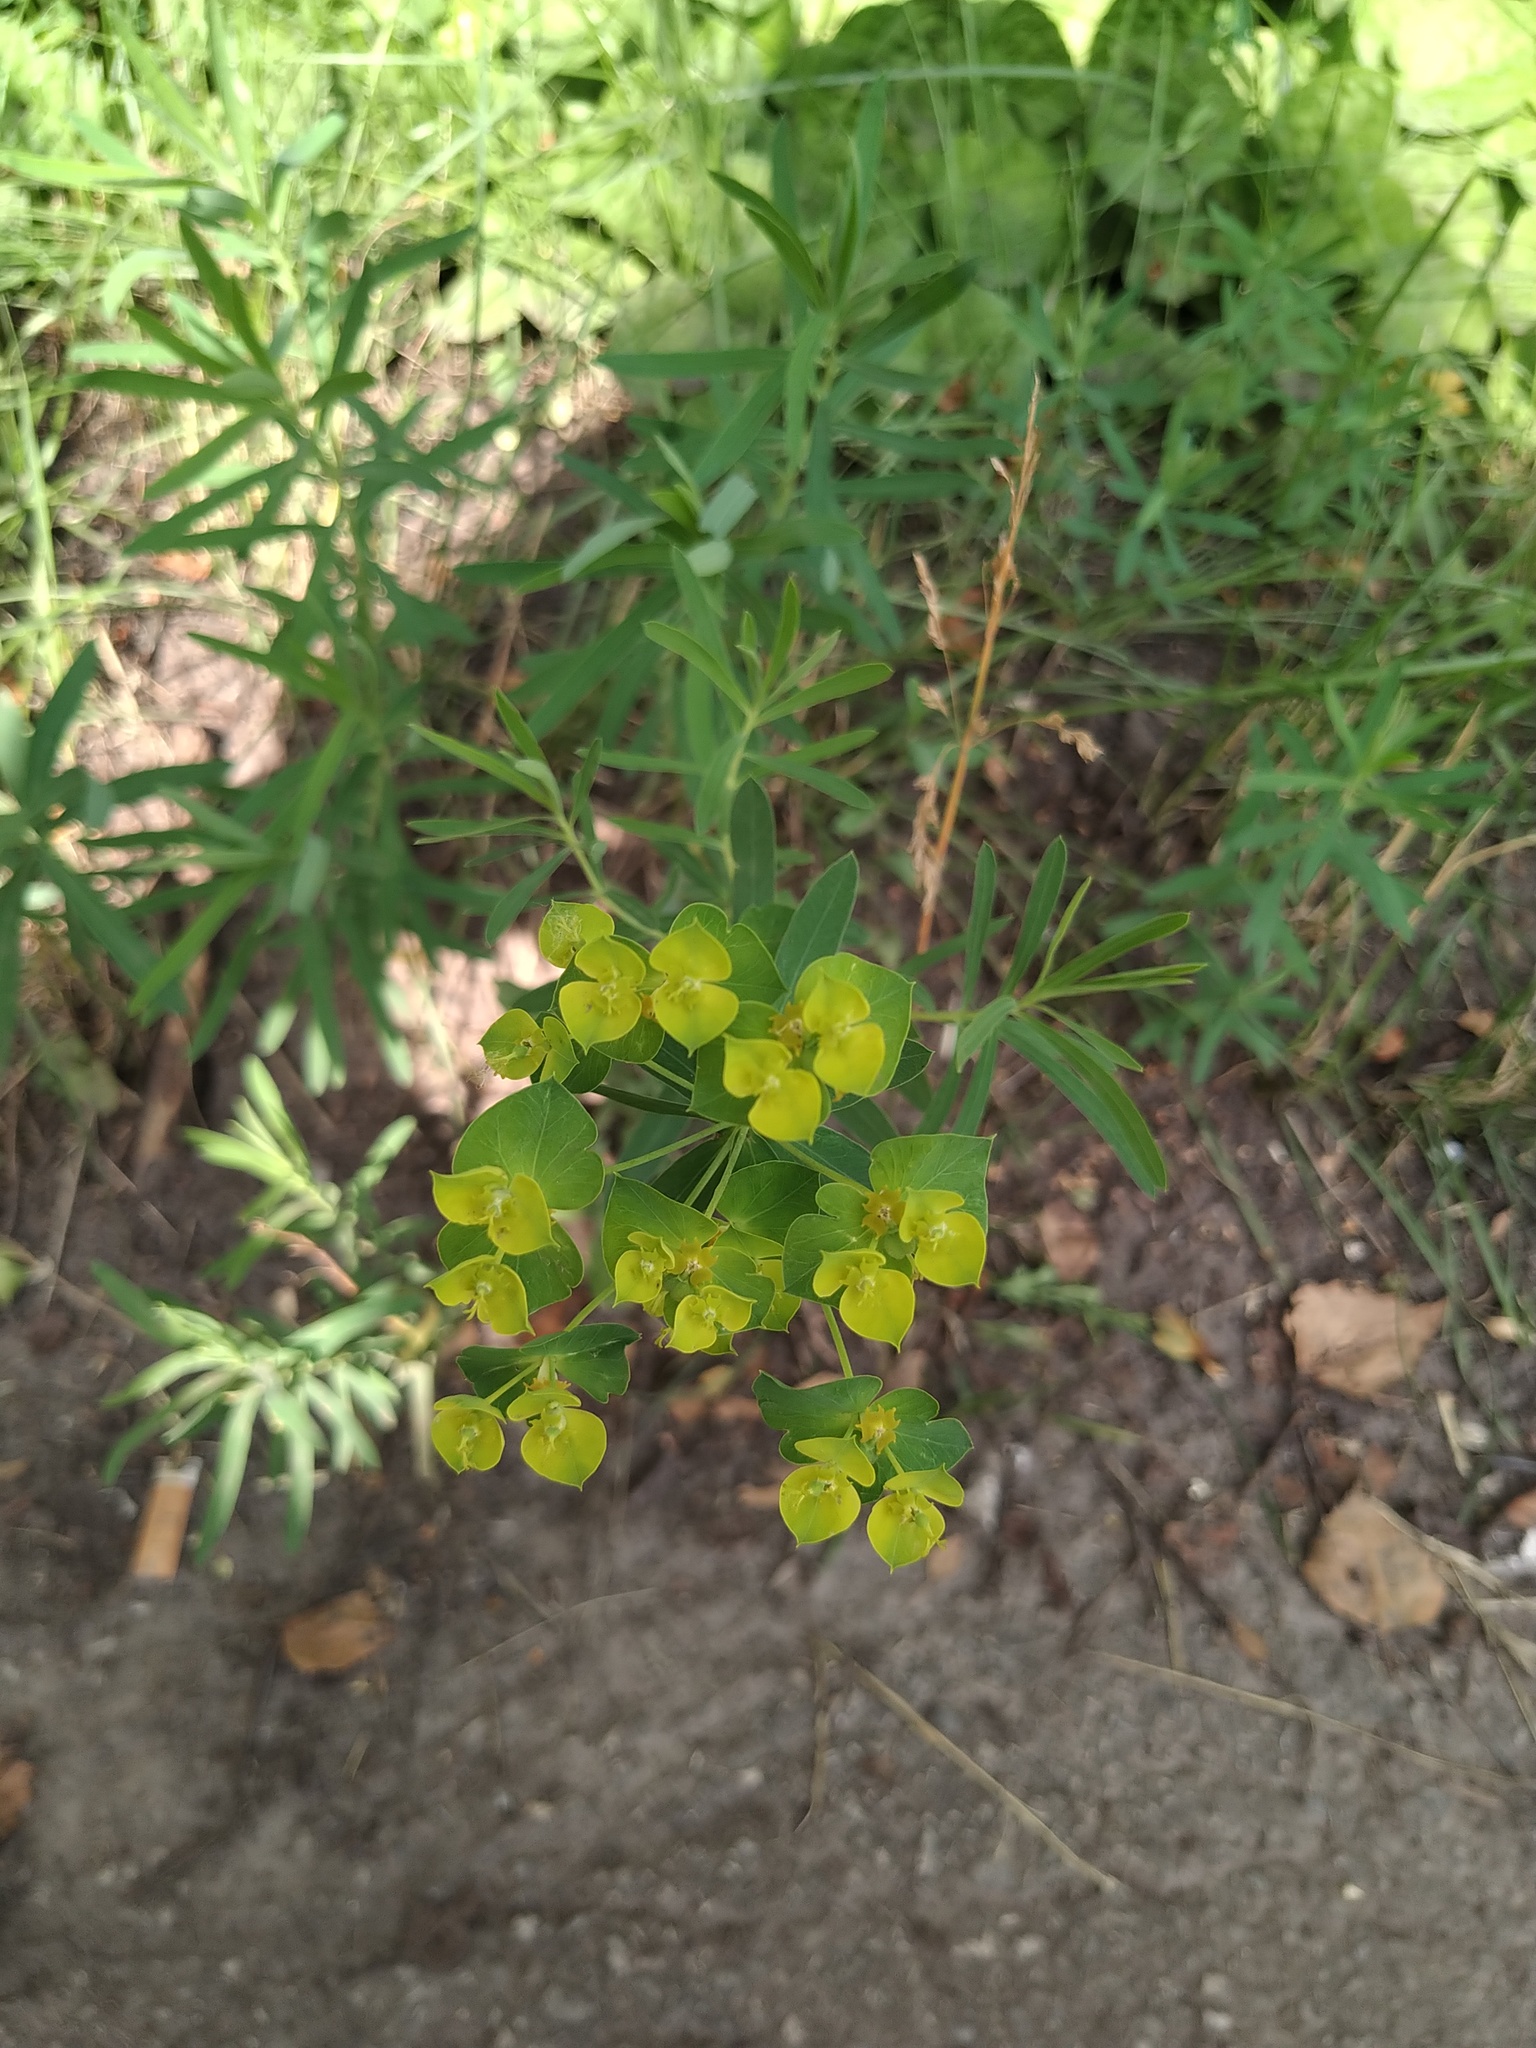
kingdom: Plantae
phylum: Tracheophyta
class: Magnoliopsida
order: Malpighiales
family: Euphorbiaceae
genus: Euphorbia
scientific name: Euphorbia virgata
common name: Leafy spurge
